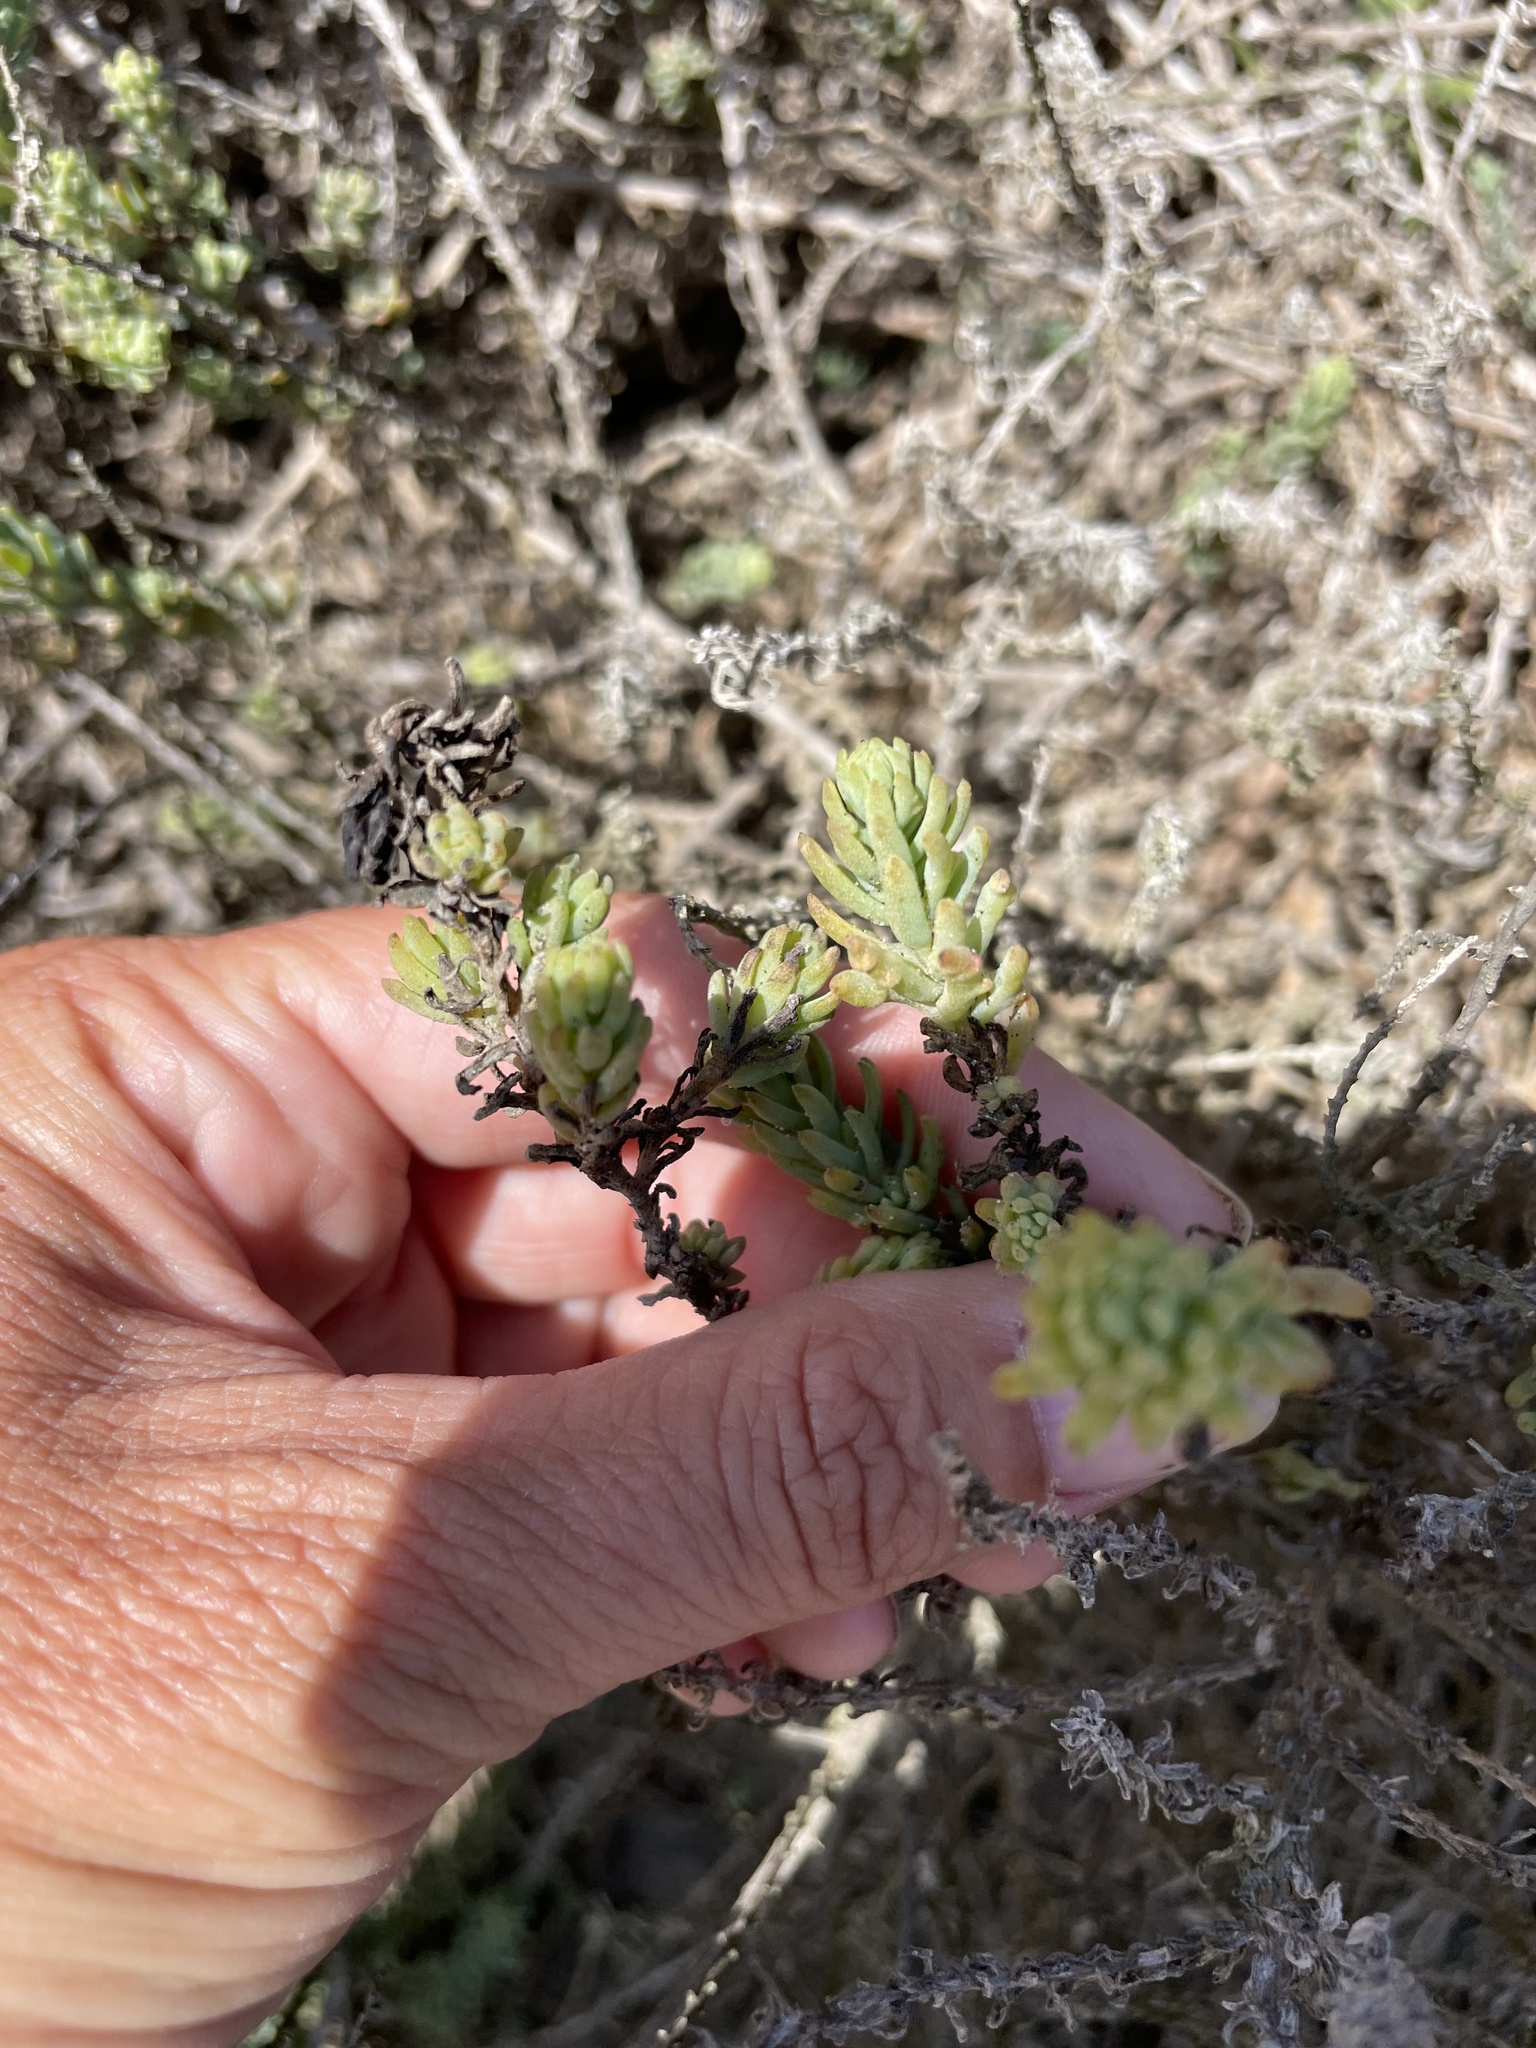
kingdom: Plantae
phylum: Tracheophyta
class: Magnoliopsida
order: Caryophyllales
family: Amaranthaceae
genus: Suaeda
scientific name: Suaeda taxifolia
